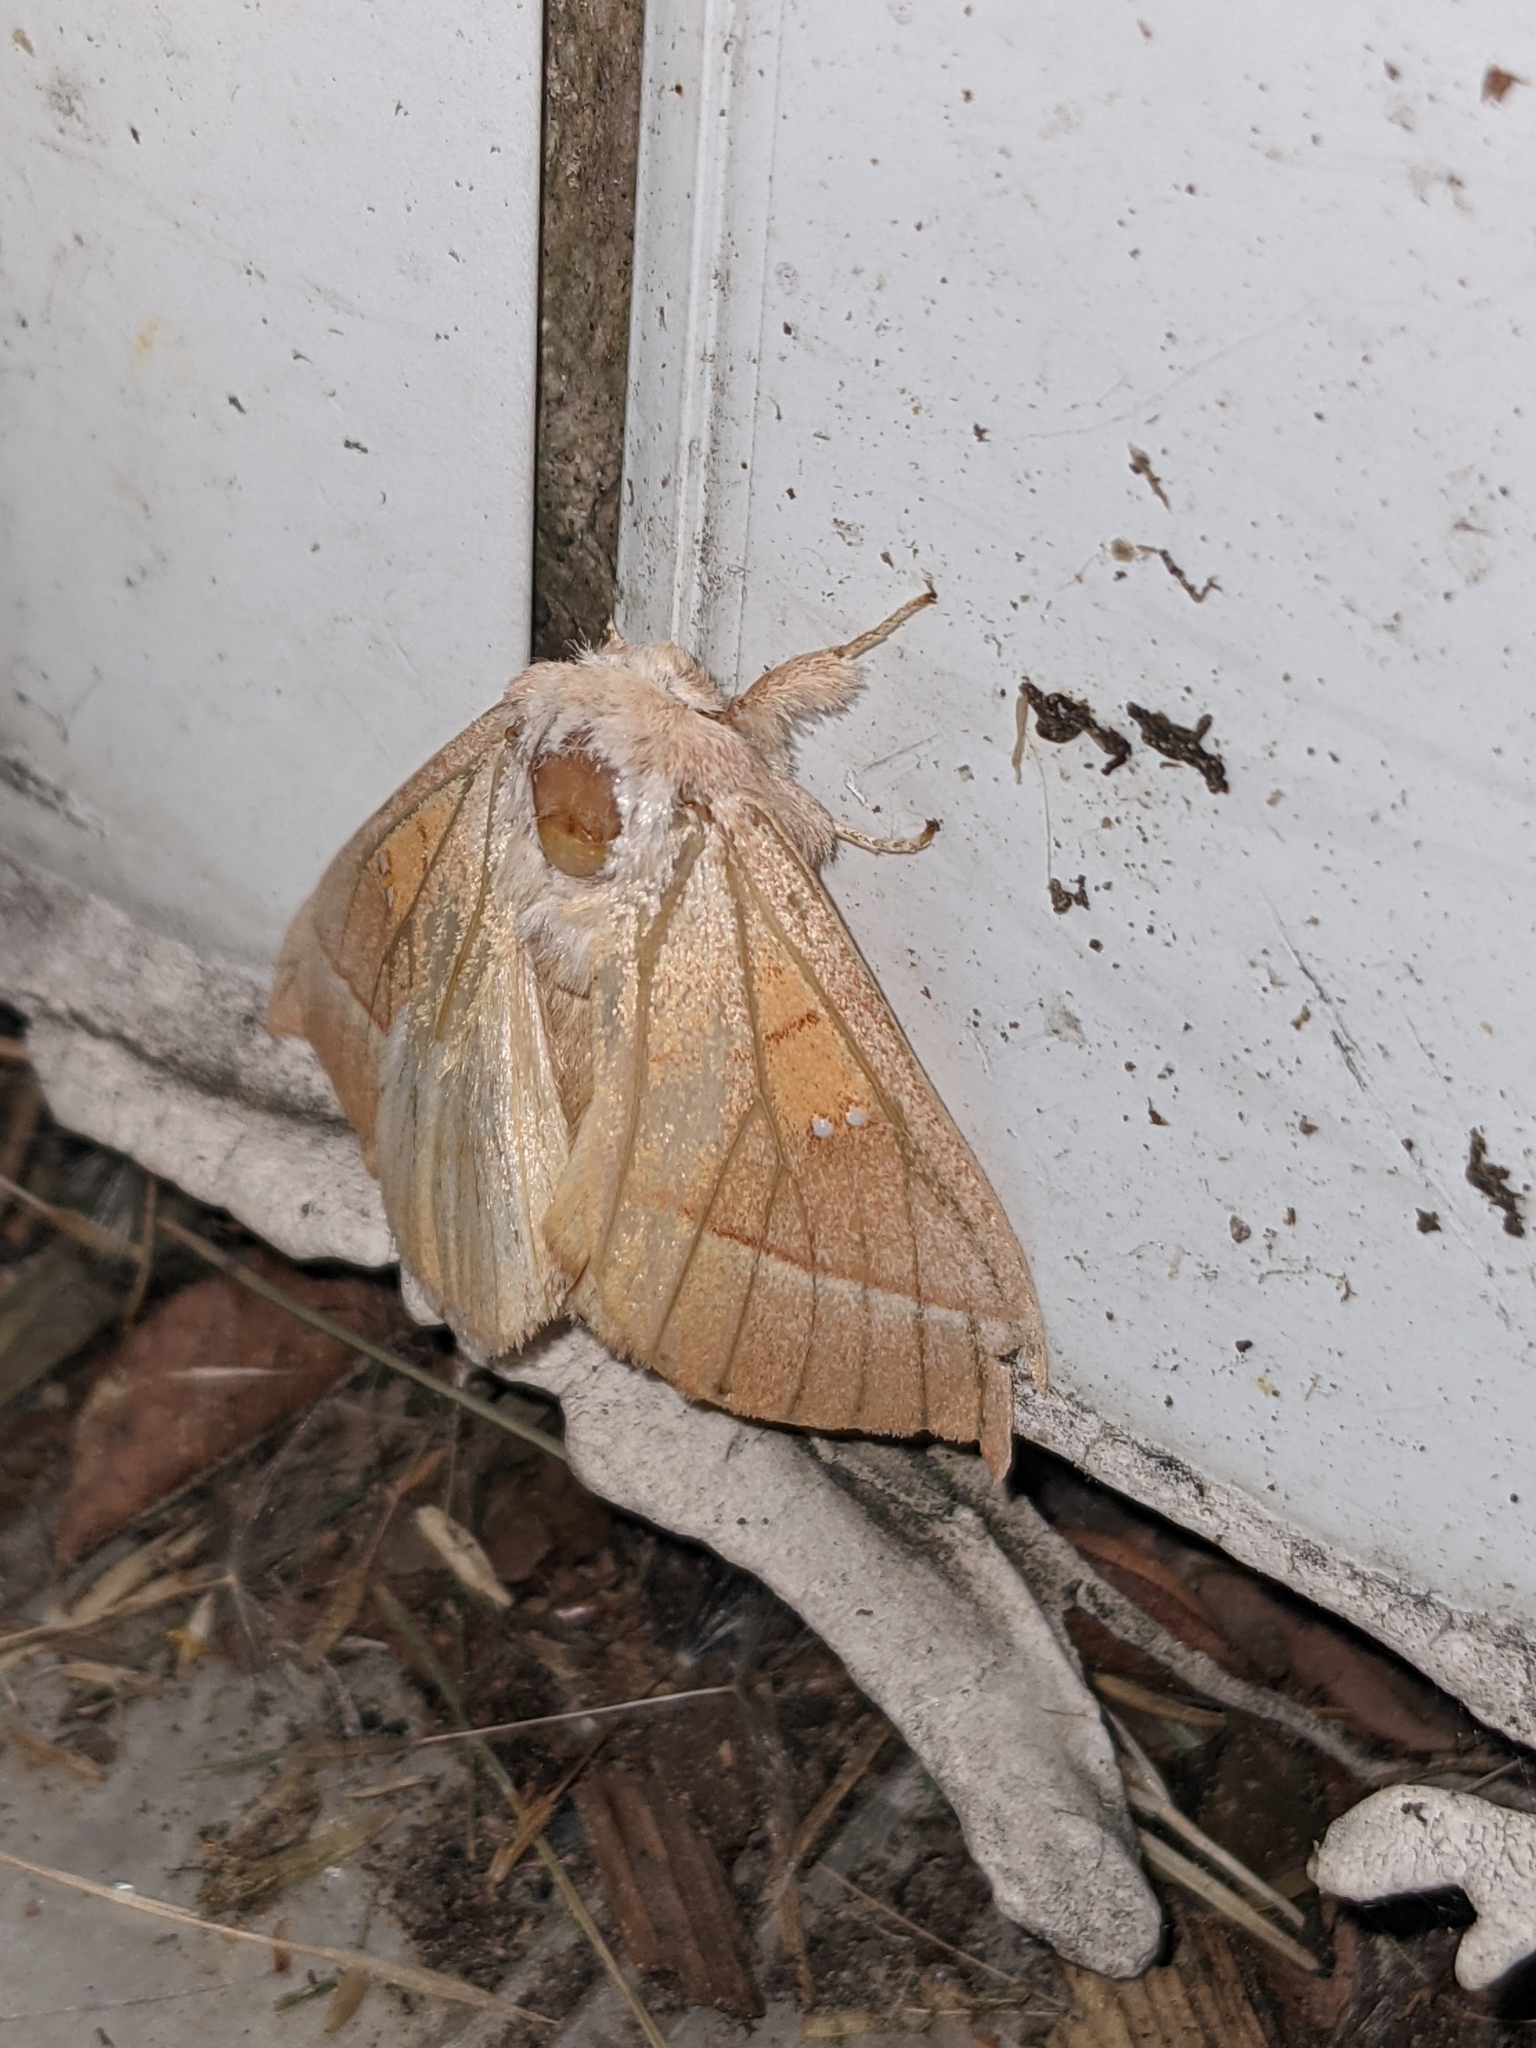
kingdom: Animalia
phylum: Arthropoda
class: Insecta
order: Lepidoptera
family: Notodontidae
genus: Nadata
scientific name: Nadata gibbosa
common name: White-dotted prominent
